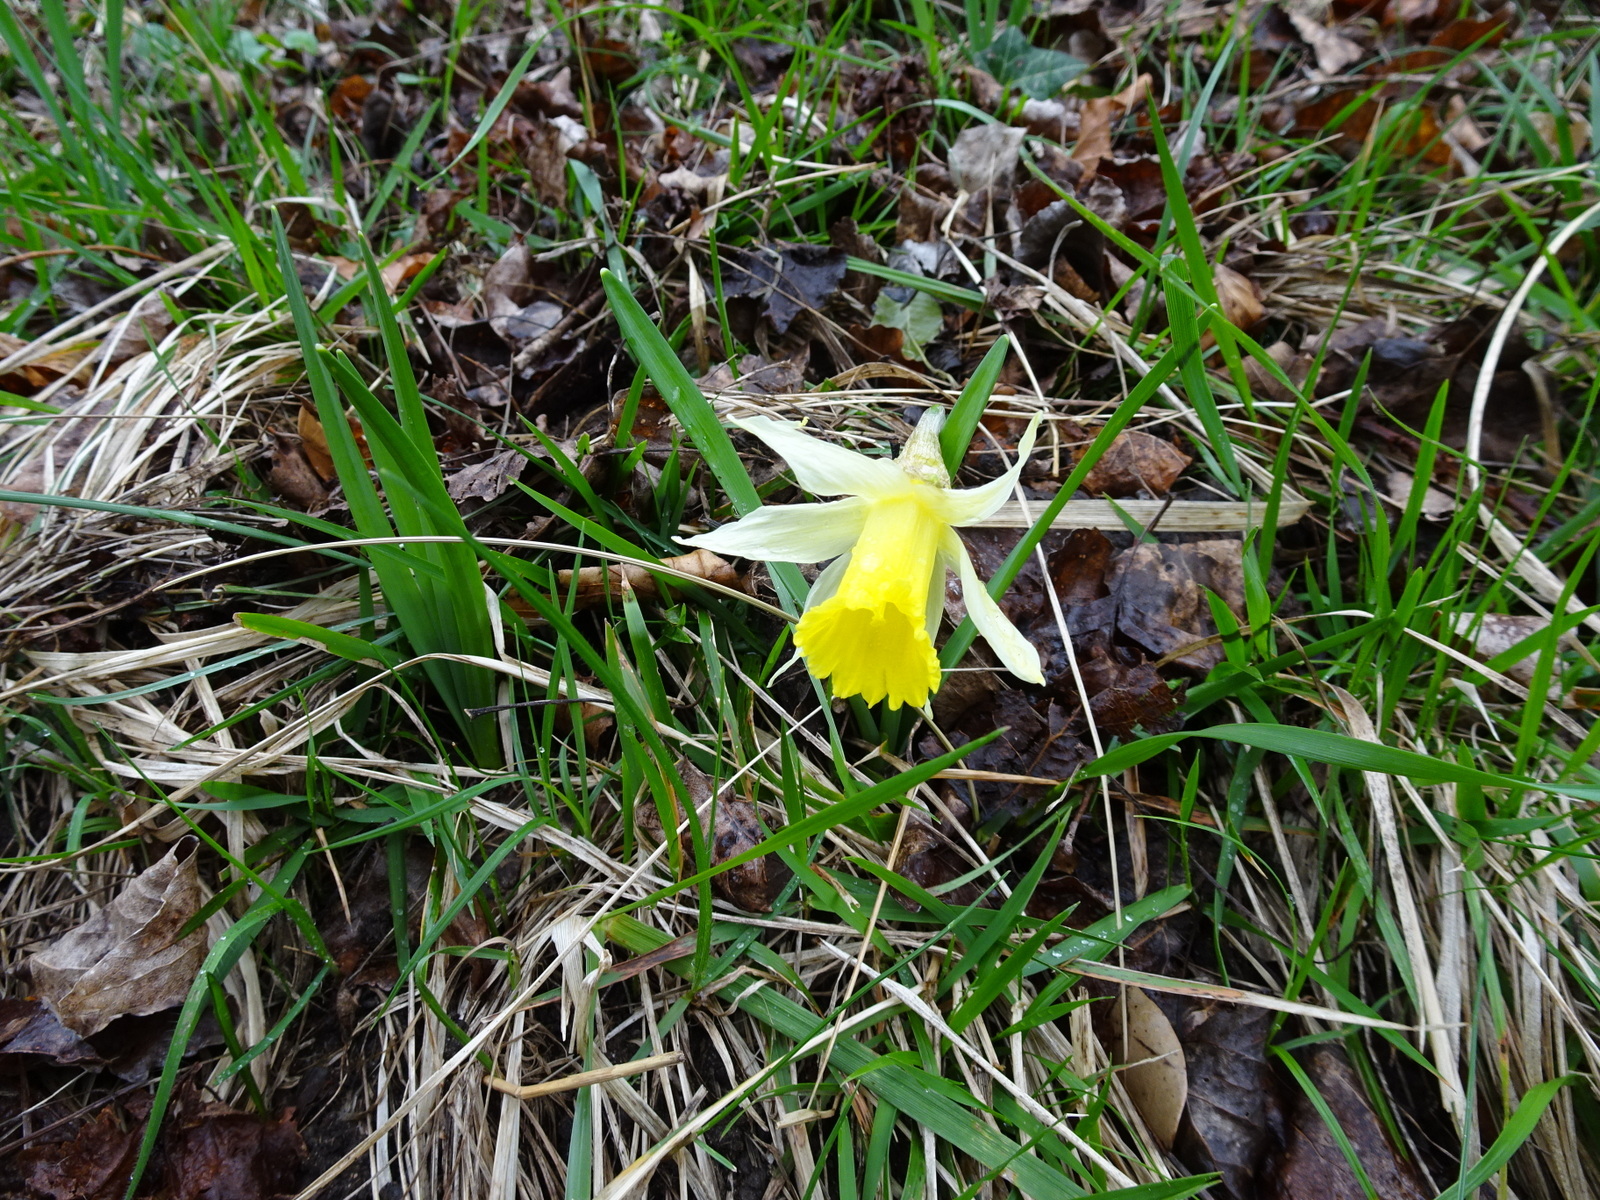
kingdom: Plantae
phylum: Tracheophyta
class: Liliopsida
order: Asparagales
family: Amaryllidaceae
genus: Narcissus
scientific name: Narcissus pseudonarcissus
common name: Daffodil
